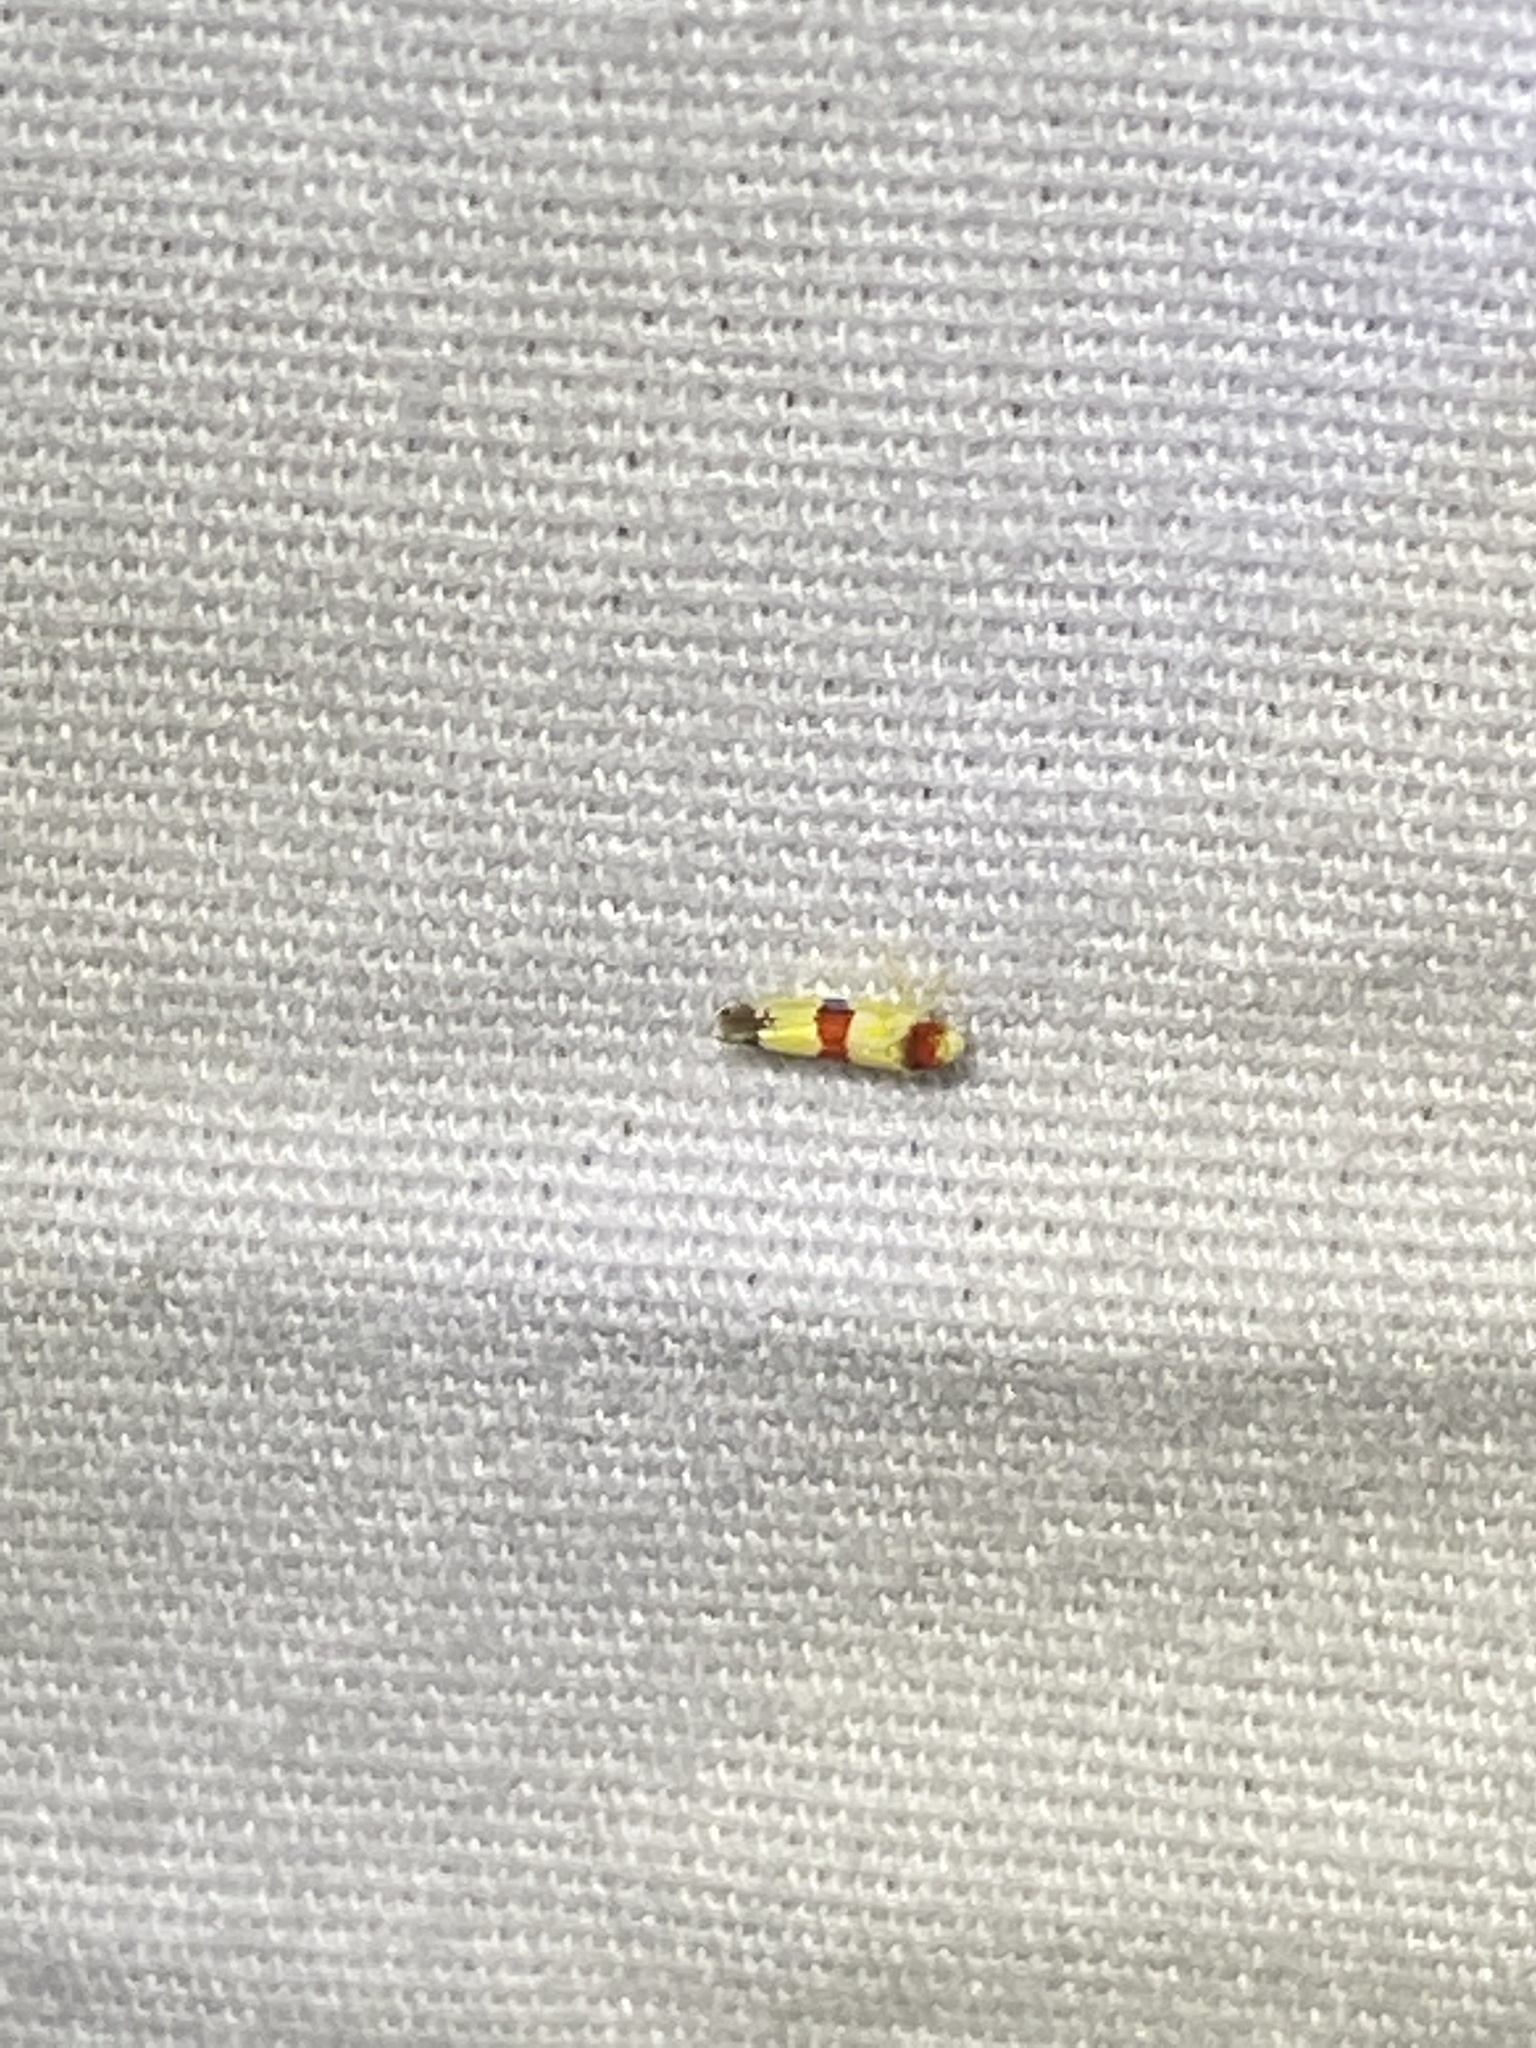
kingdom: Animalia
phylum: Arthropoda
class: Insecta
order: Hemiptera
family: Cicadellidae
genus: Erythroneura
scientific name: Erythroneura diva
